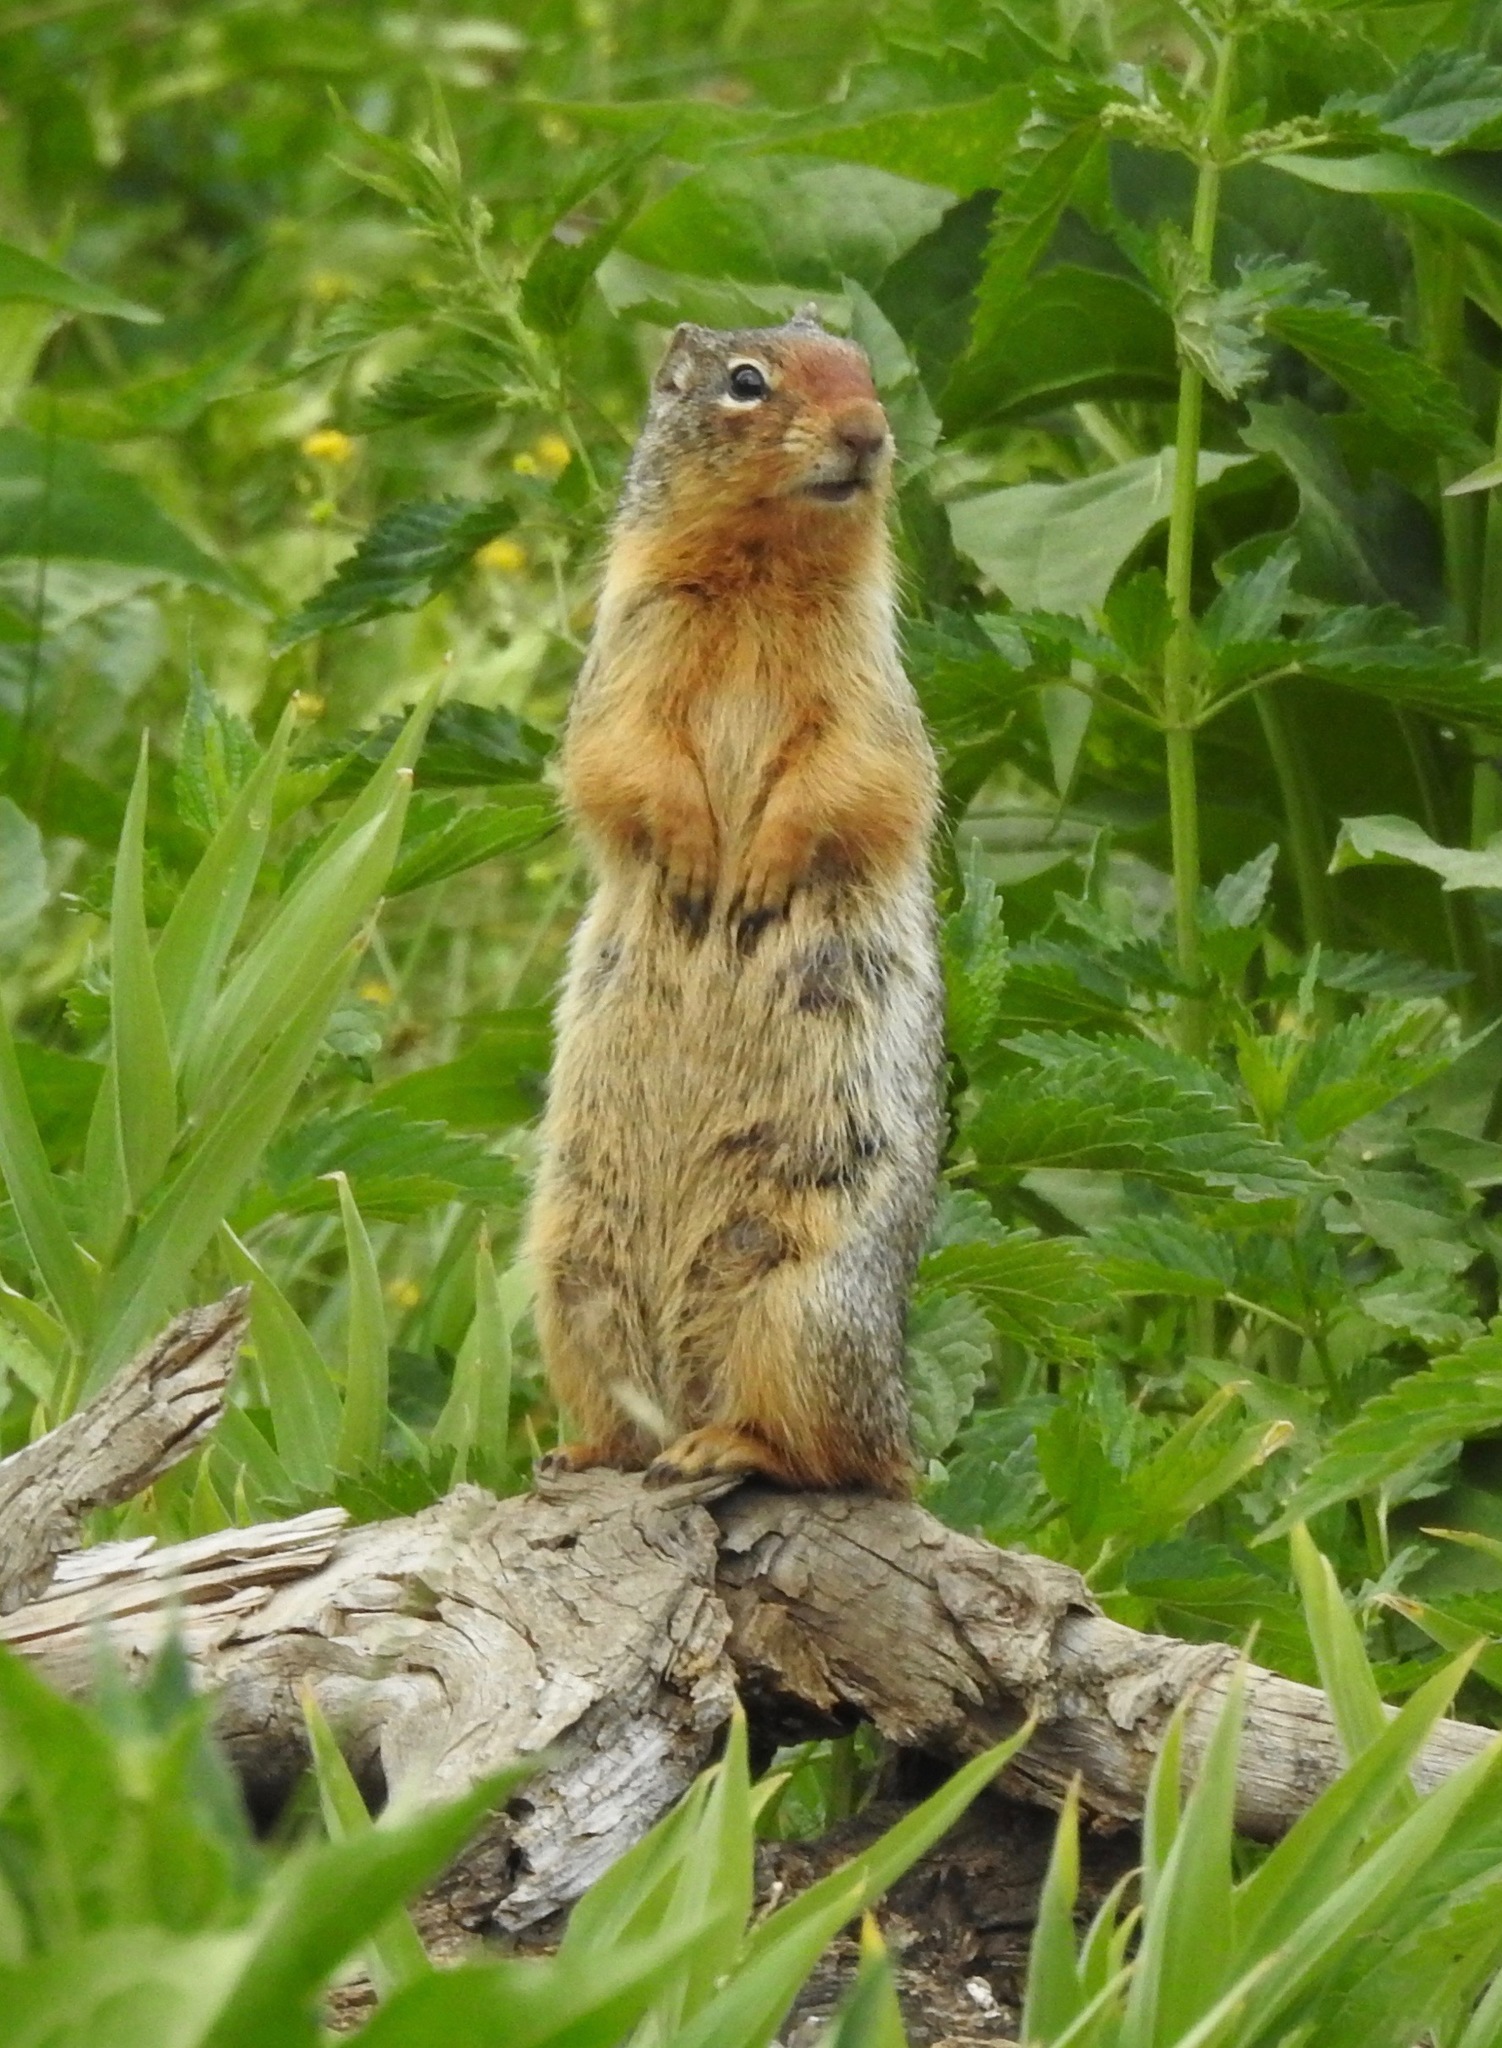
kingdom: Animalia
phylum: Chordata
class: Mammalia
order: Rodentia
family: Sciuridae
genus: Urocitellus
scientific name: Urocitellus columbianus
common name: Columbian ground squirrel
